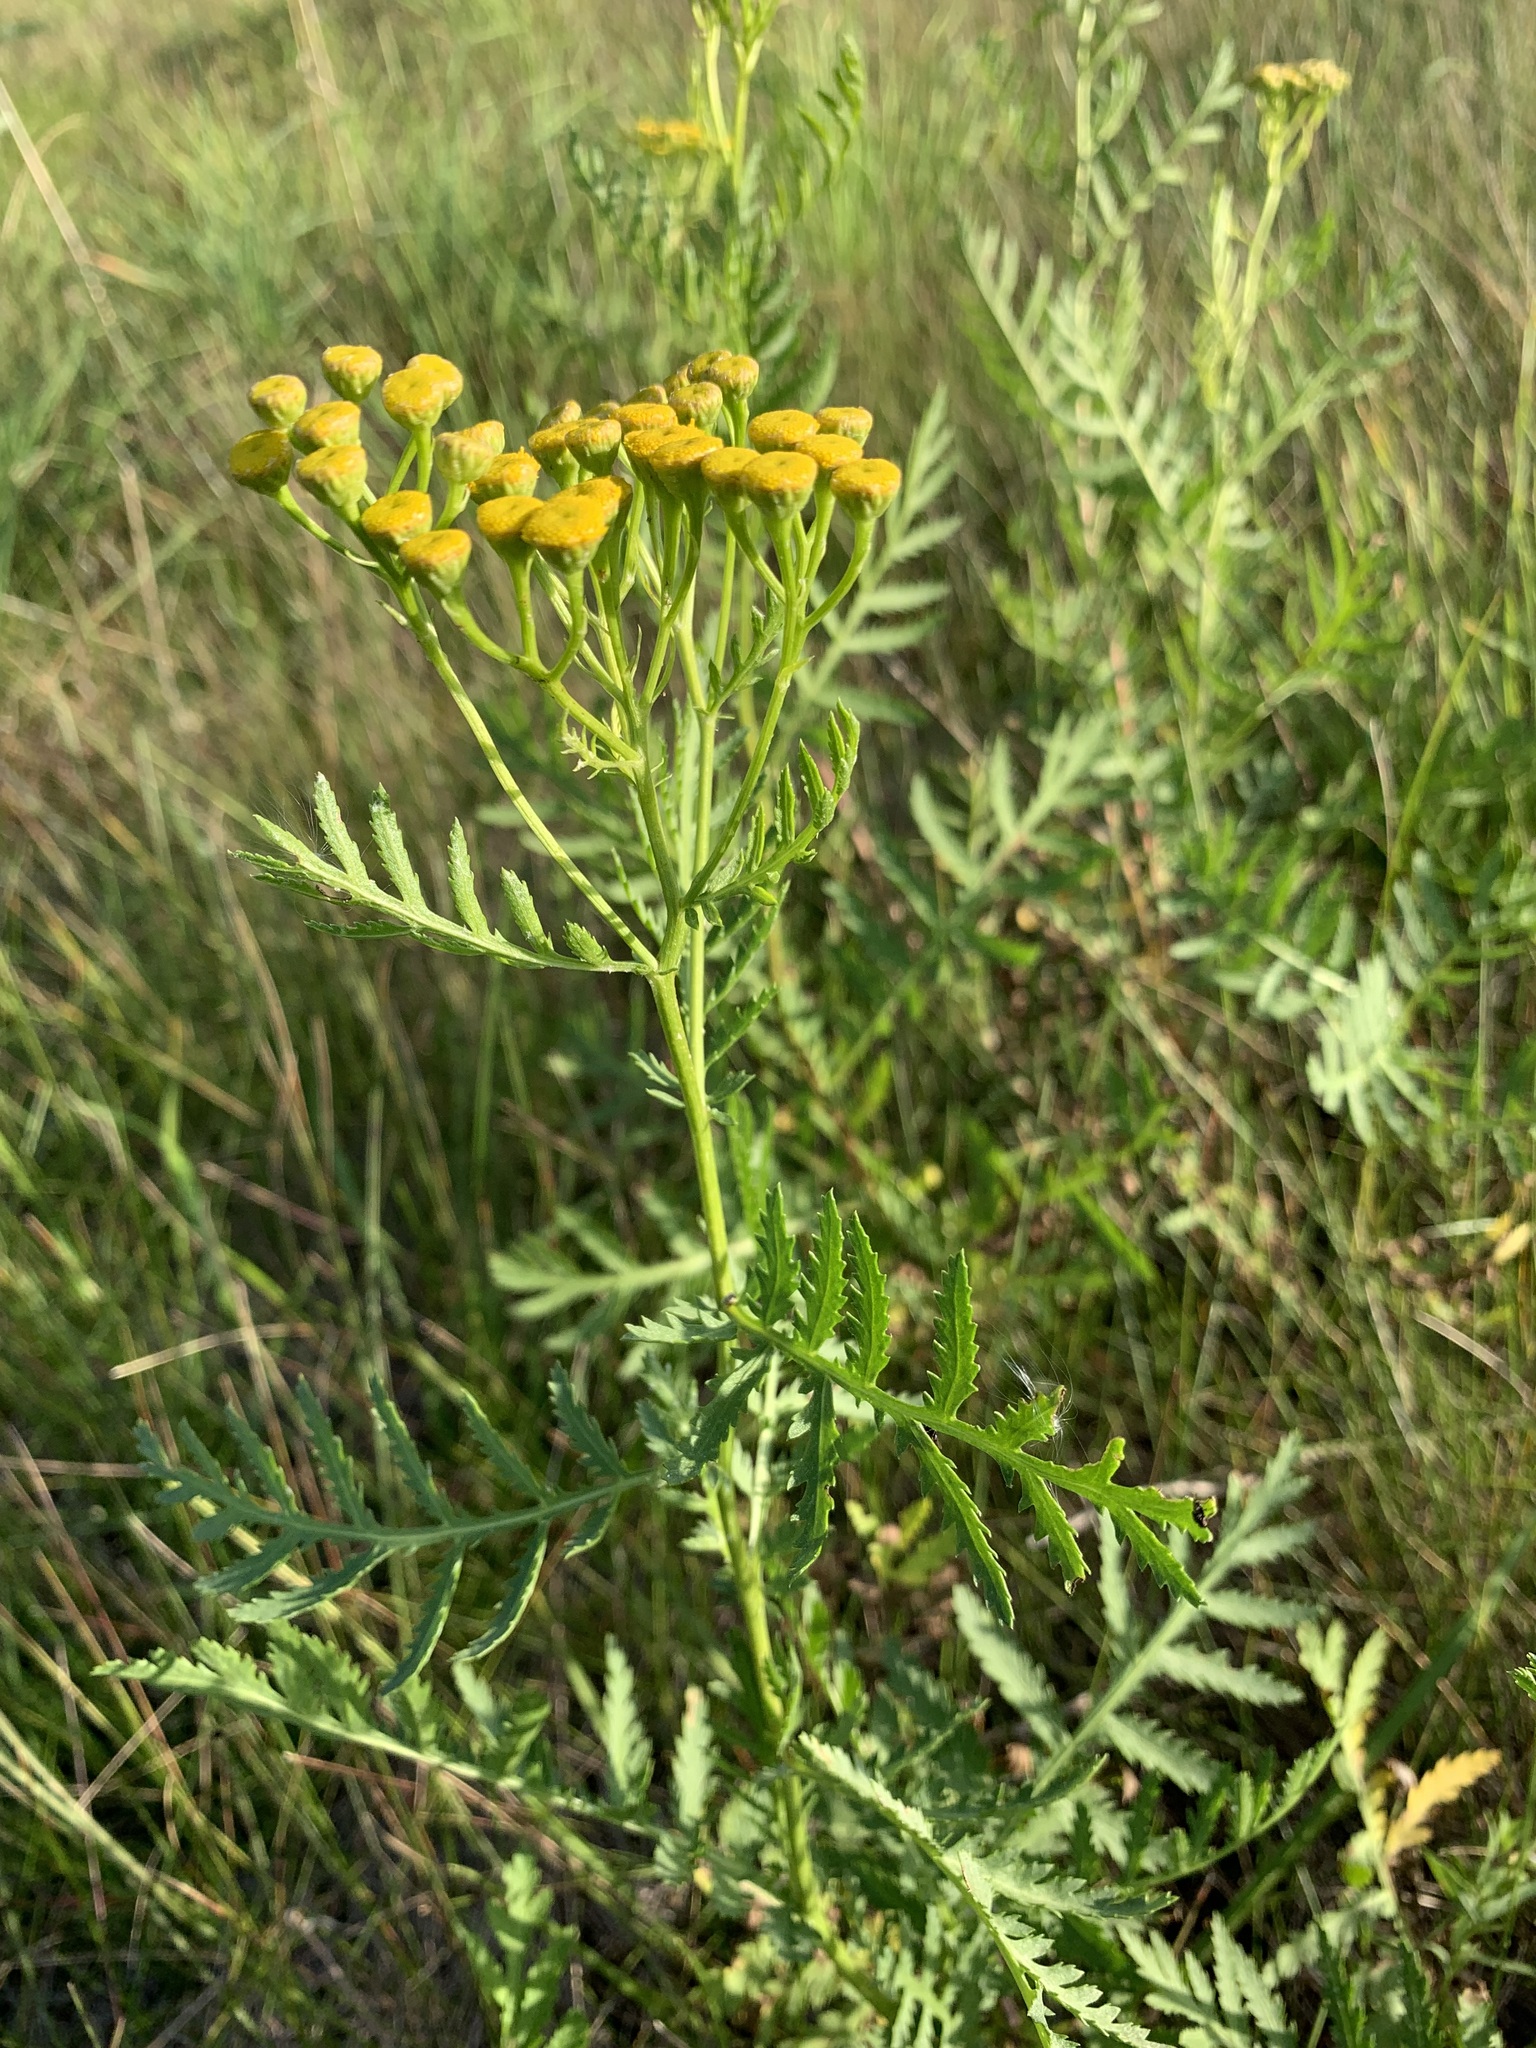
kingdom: Plantae
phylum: Tracheophyta
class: Magnoliopsida
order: Asterales
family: Asteraceae
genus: Tanacetum
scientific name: Tanacetum vulgare
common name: Common tansy
